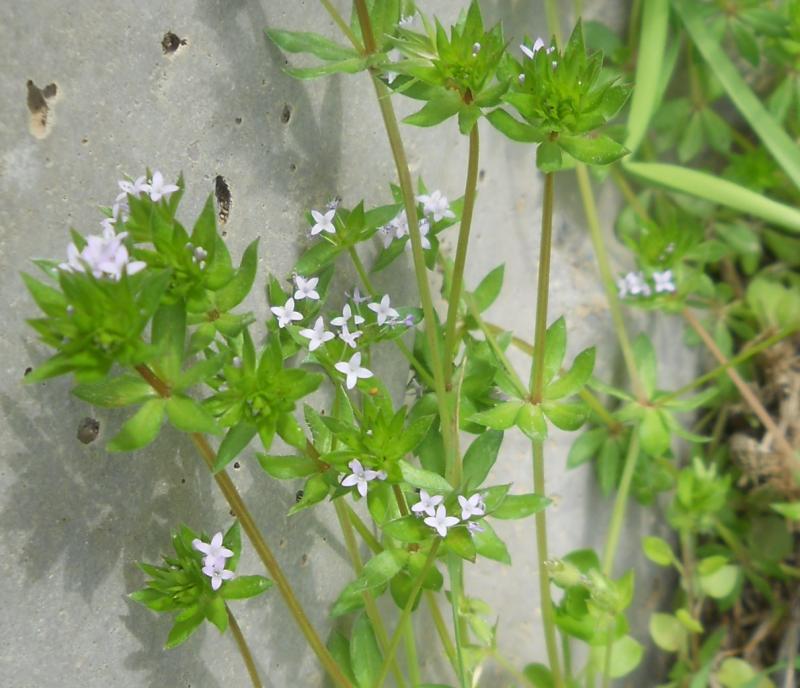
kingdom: Plantae
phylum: Tracheophyta
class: Magnoliopsida
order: Gentianales
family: Rubiaceae
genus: Sherardia
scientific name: Sherardia arvensis
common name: Field madder
